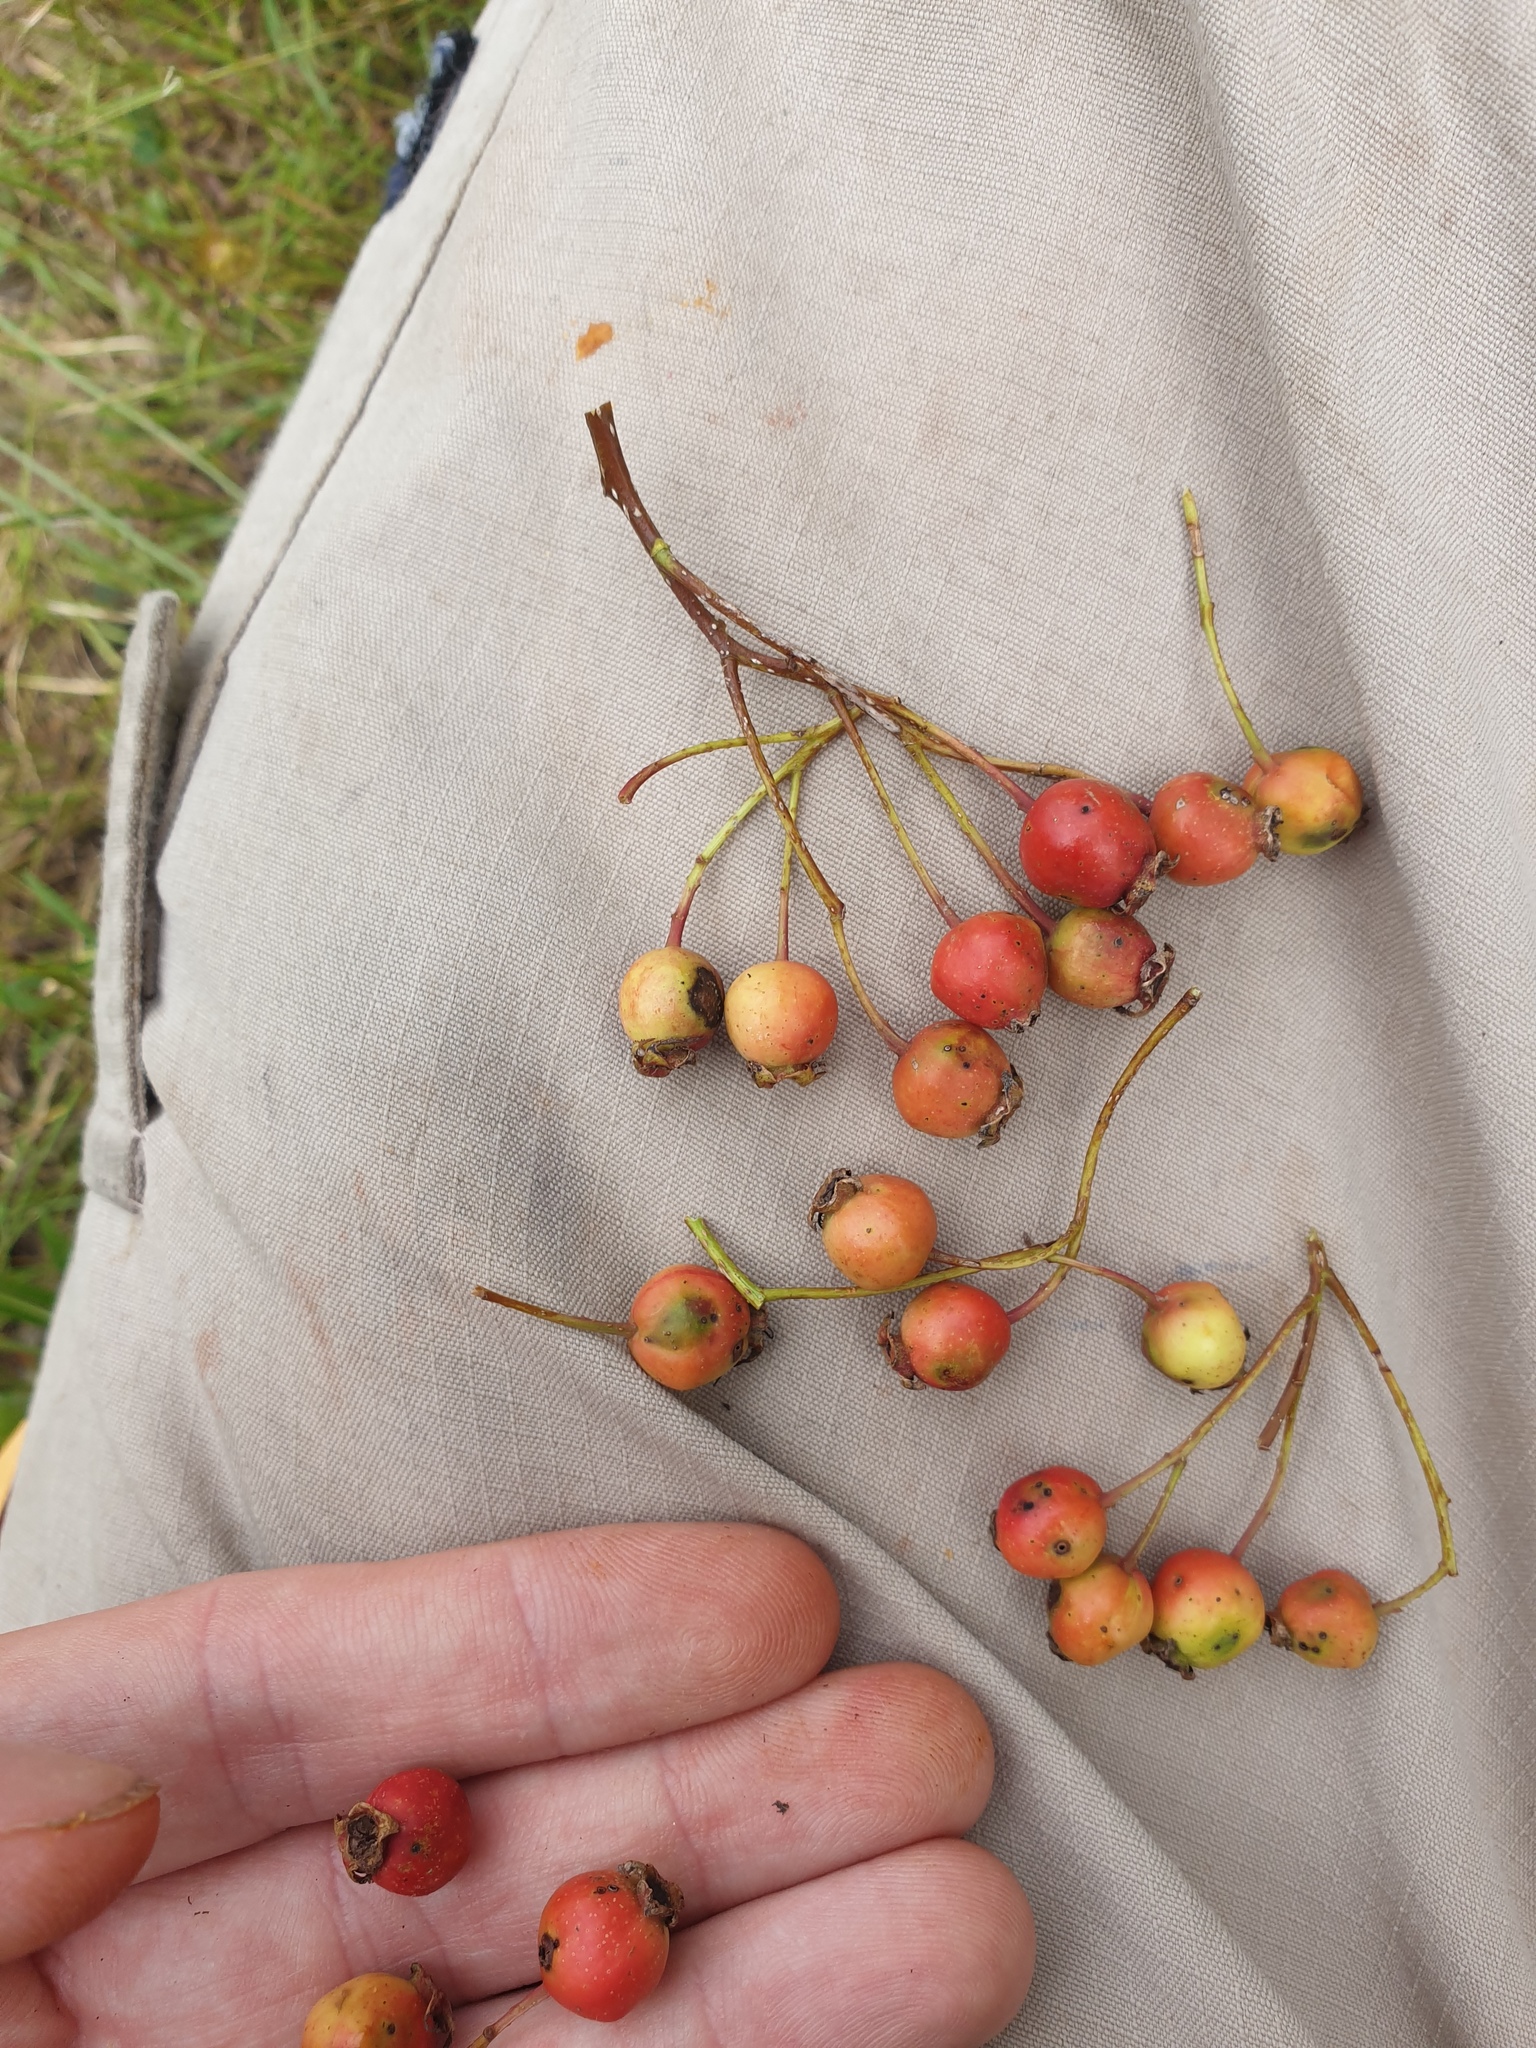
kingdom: Plantae
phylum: Tracheophyta
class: Magnoliopsida
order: Rosales
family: Rosaceae
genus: Crataegus
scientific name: Crataegus macracantha
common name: Large-thorn hawthorn
